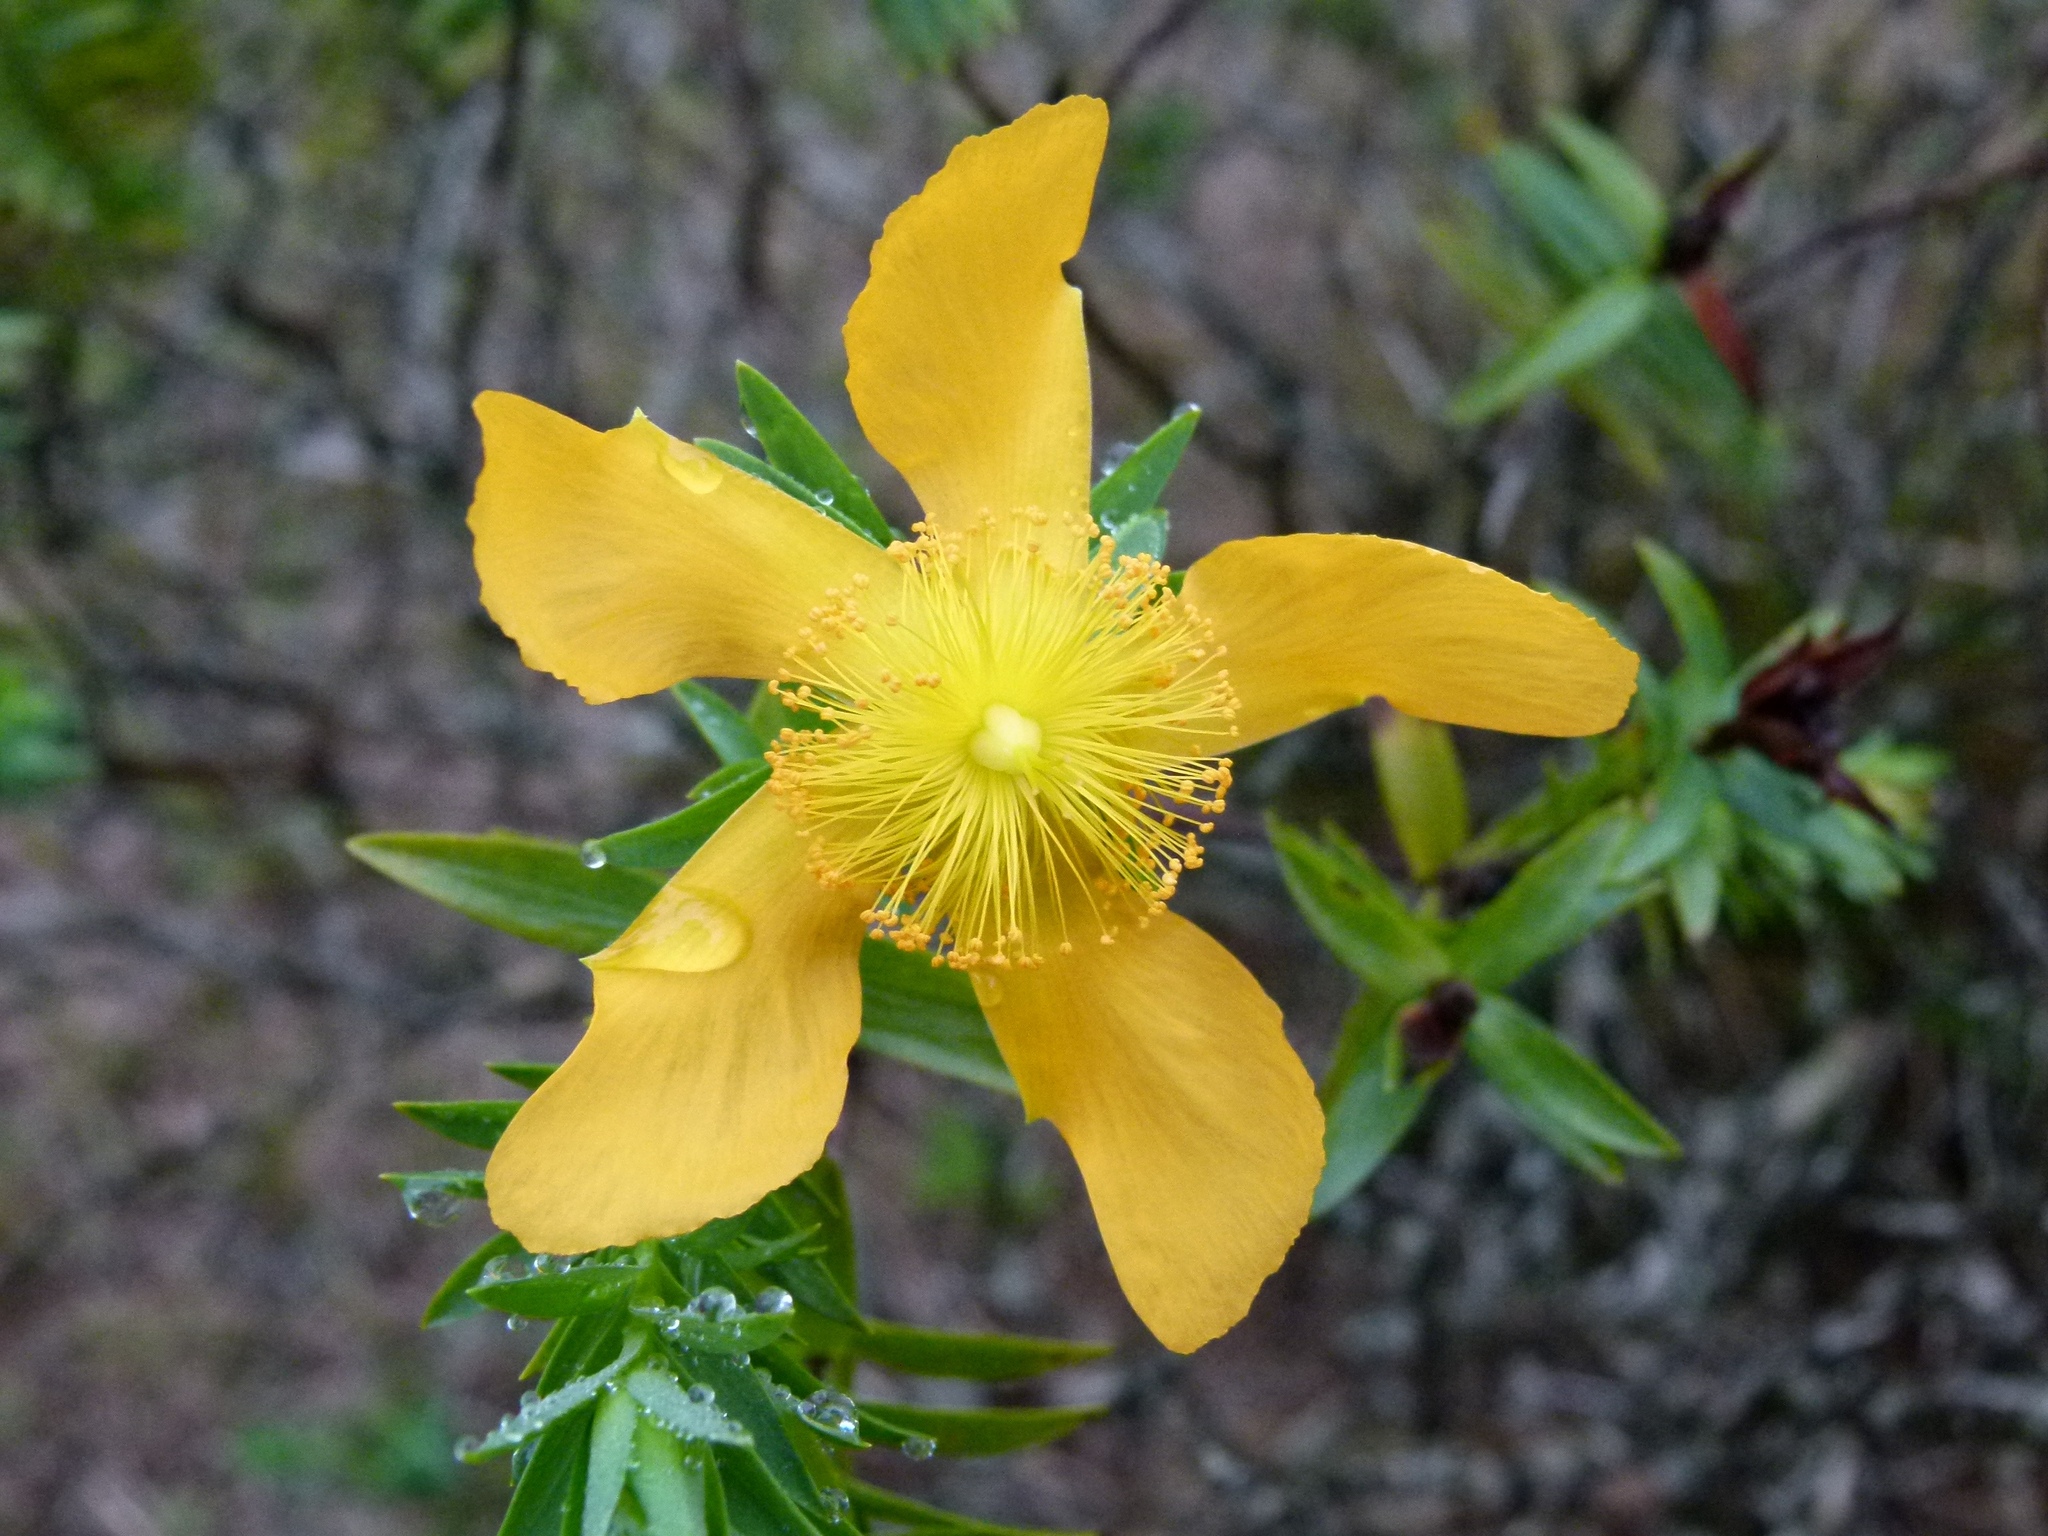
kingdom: Plantae
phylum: Tracheophyta
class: Magnoliopsida
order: Malpighiales
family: Hypericaceae
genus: Hypericum
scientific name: Hypericum styphelioides
